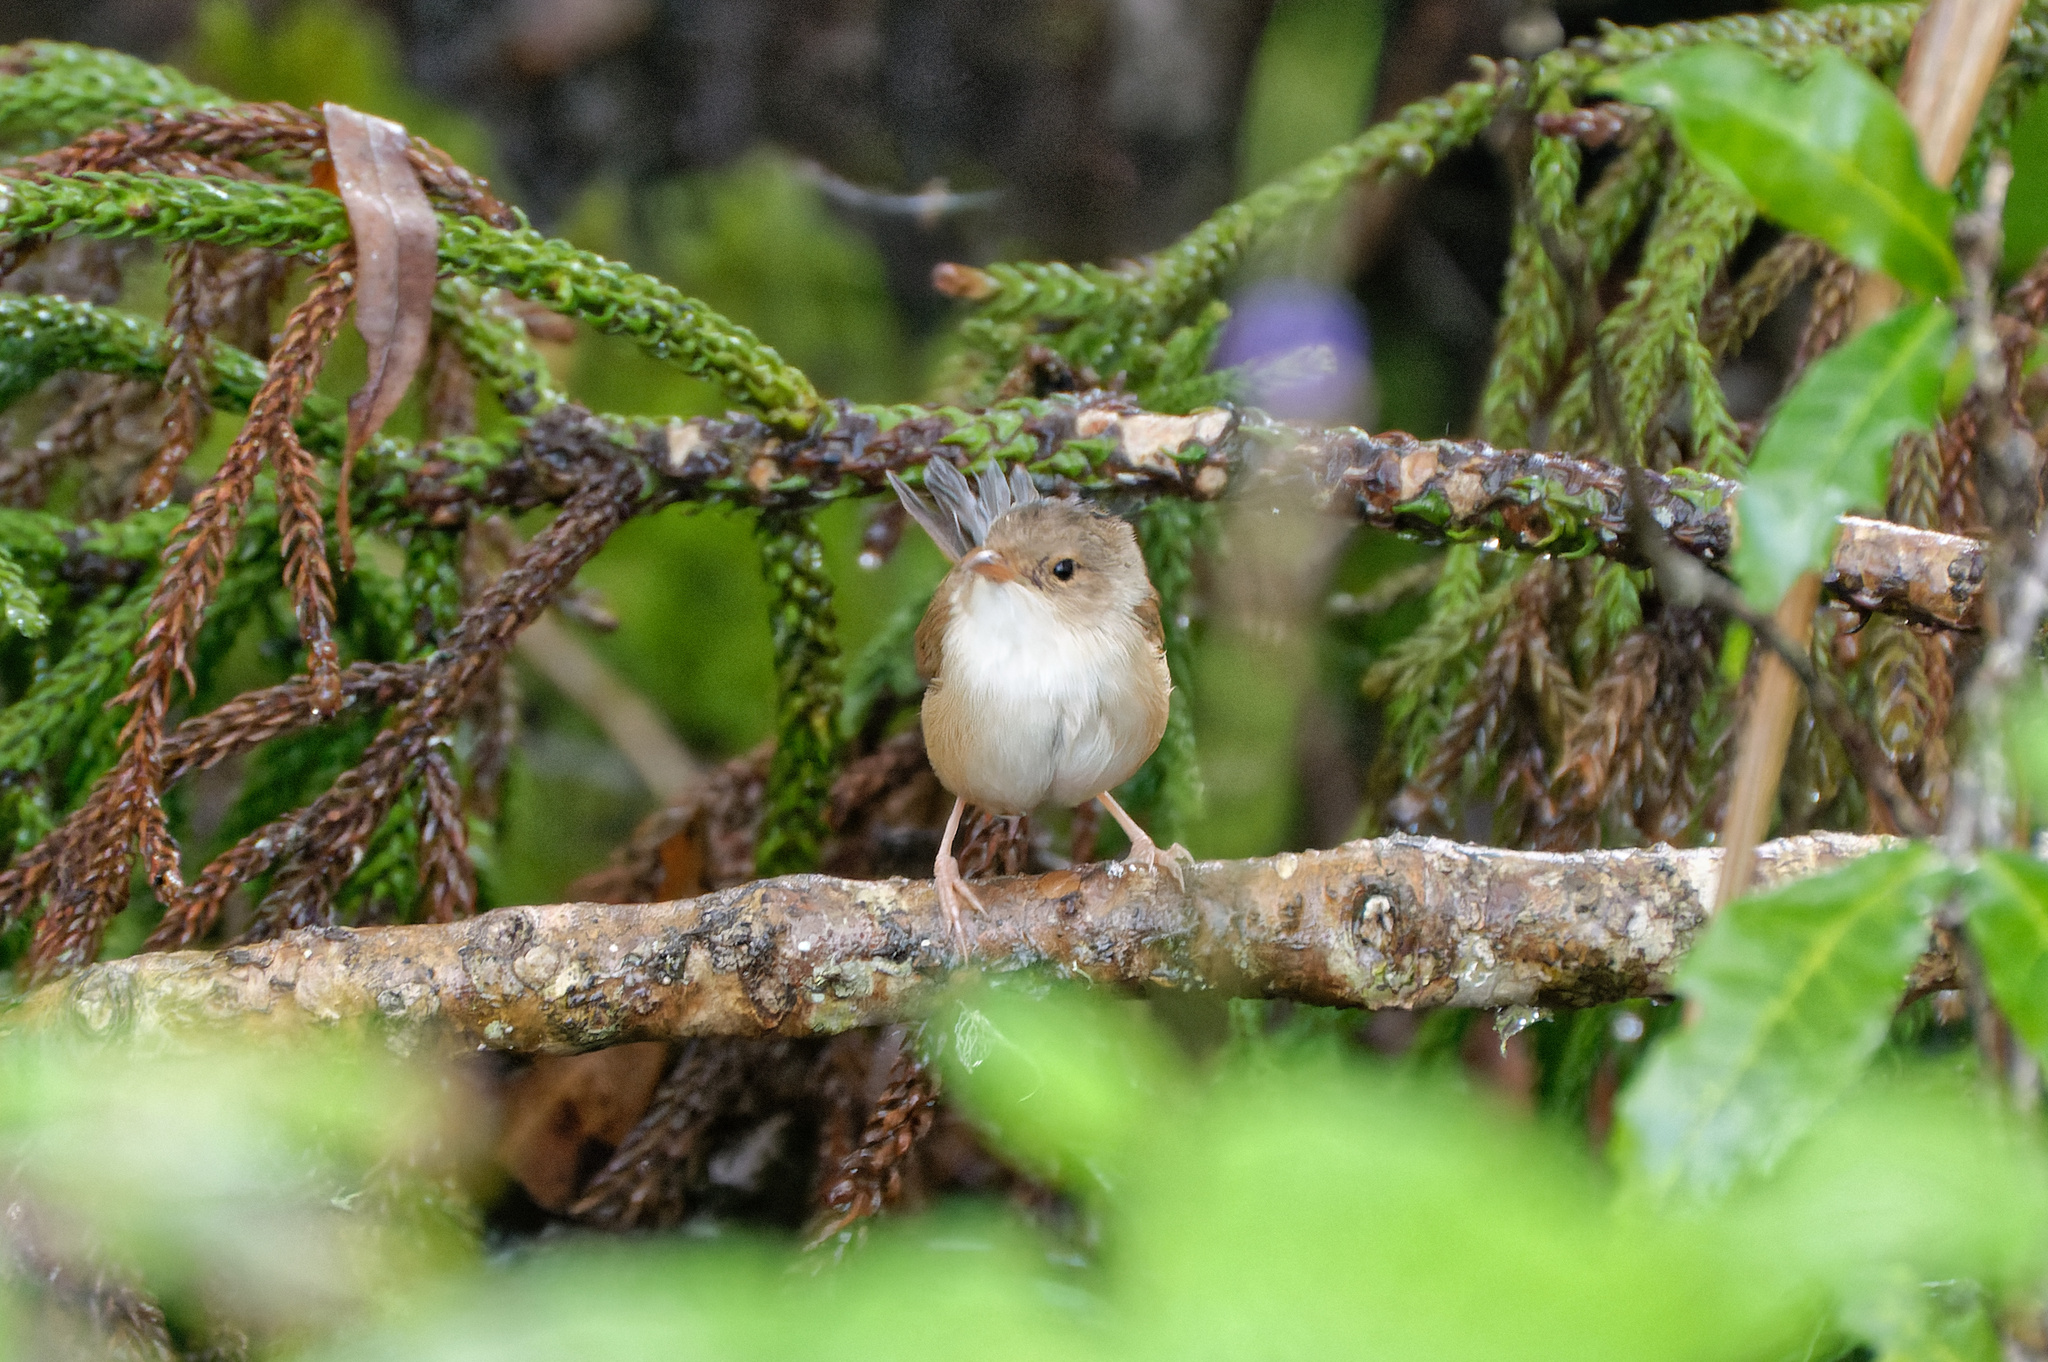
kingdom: Animalia
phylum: Chordata
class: Aves
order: Passeriformes
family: Maluridae
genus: Malurus
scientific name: Malurus melanocephalus
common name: Red-backed fairywren
